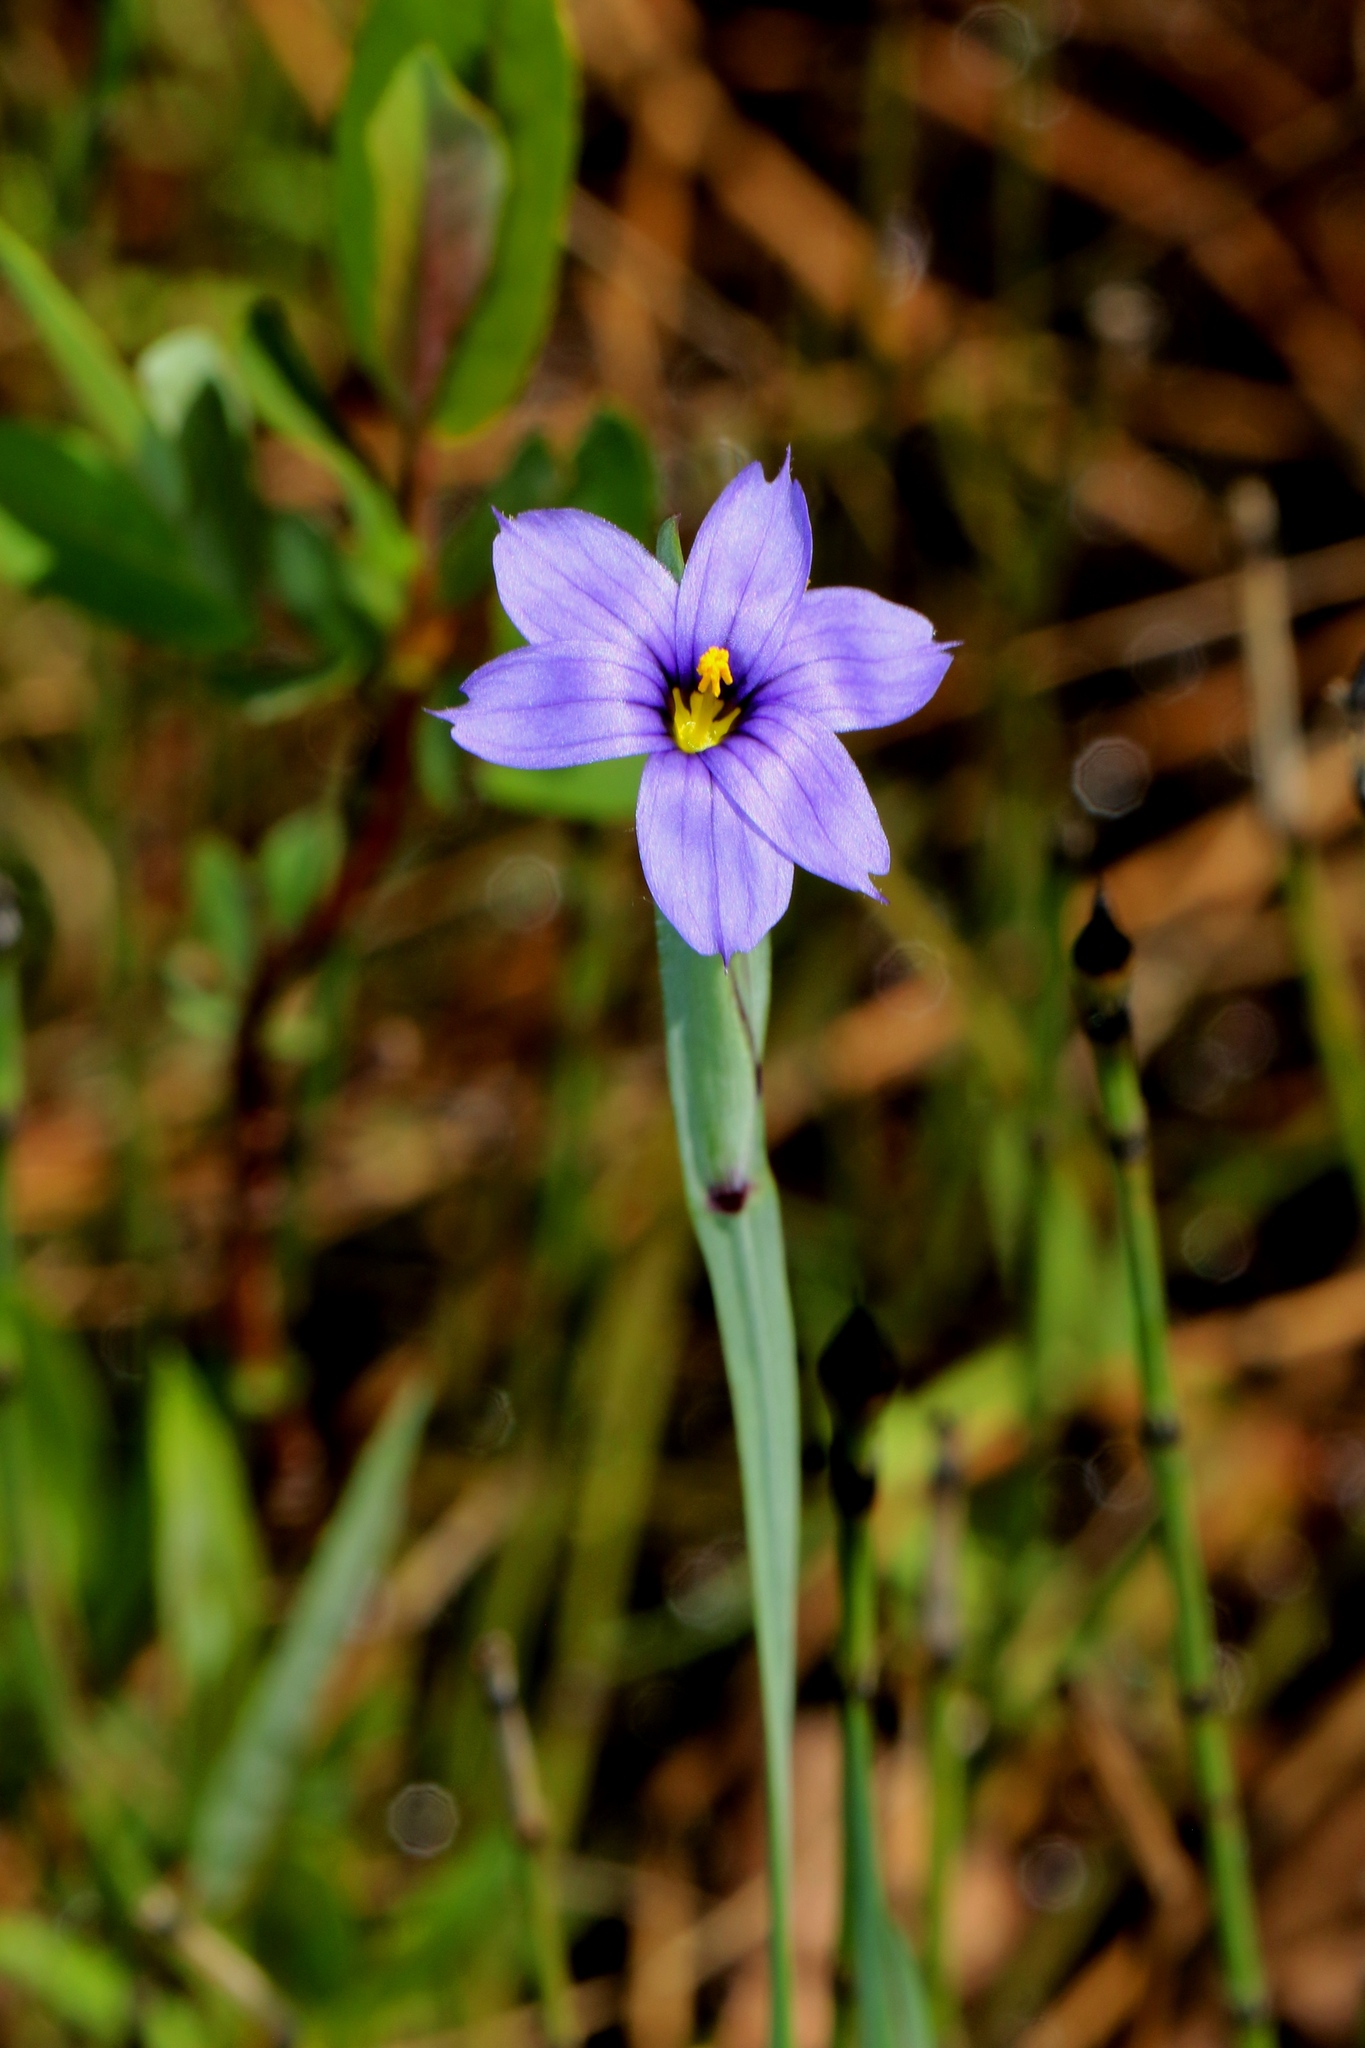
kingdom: Plantae
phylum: Tracheophyta
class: Liliopsida
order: Asparagales
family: Iridaceae
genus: Sisyrinchium
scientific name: Sisyrinchium montanum
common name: American blue-eyed-grass
